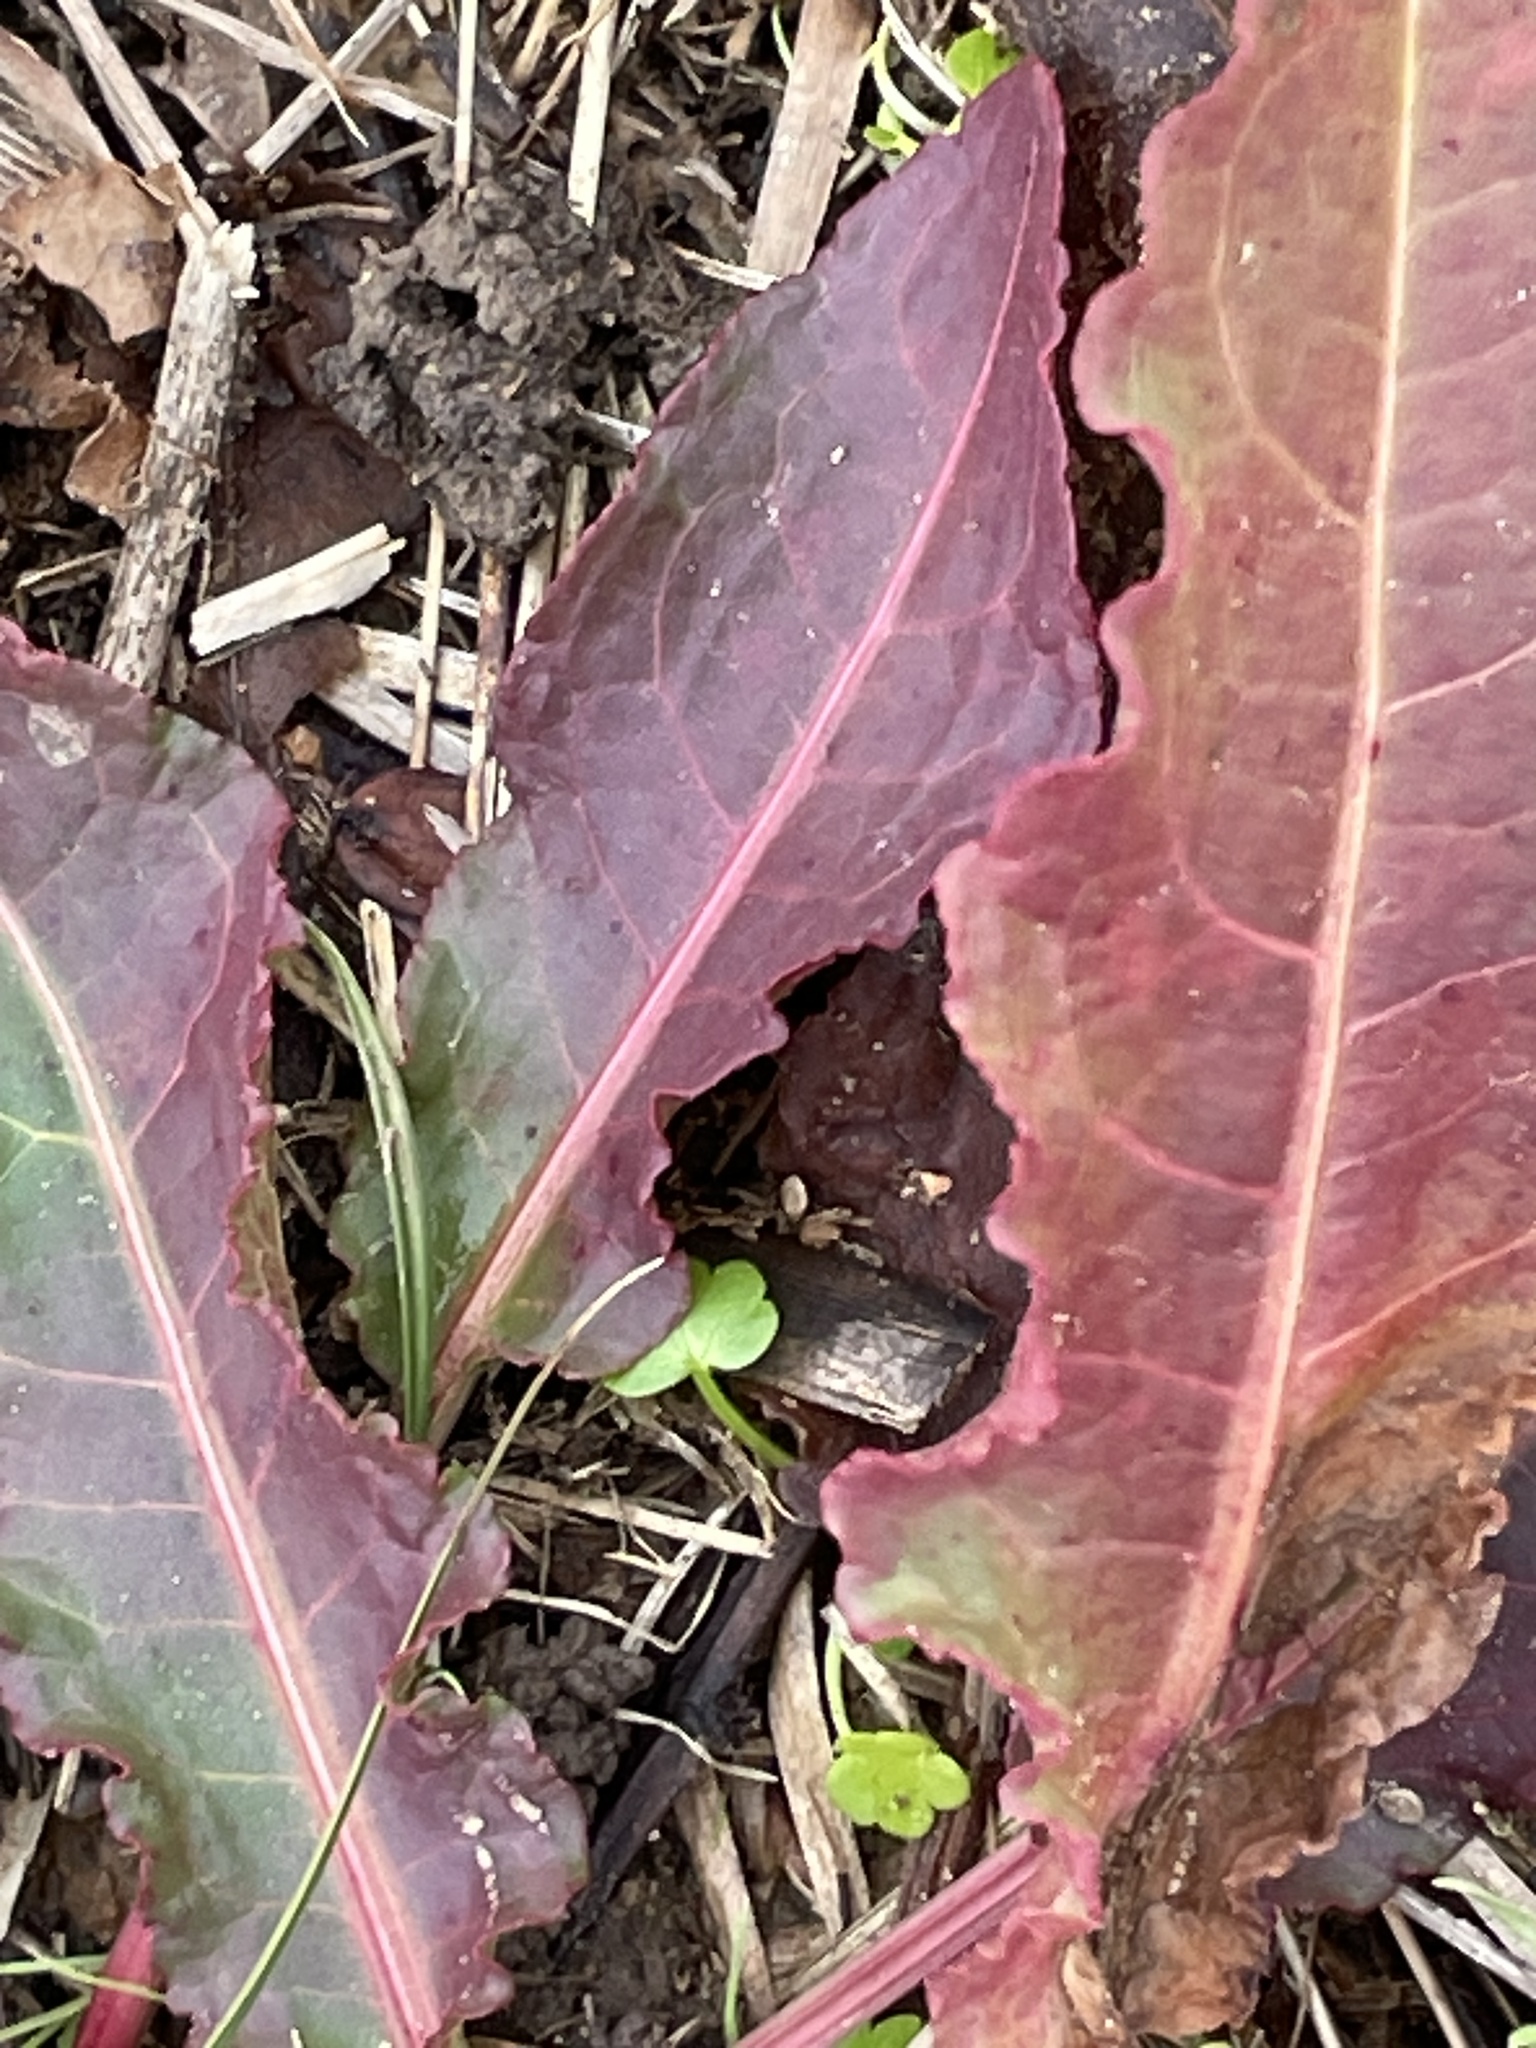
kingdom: Plantae
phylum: Tracheophyta
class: Magnoliopsida
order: Caryophyllales
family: Polygonaceae
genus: Rumex
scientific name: Rumex crispus
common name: Curled dock
